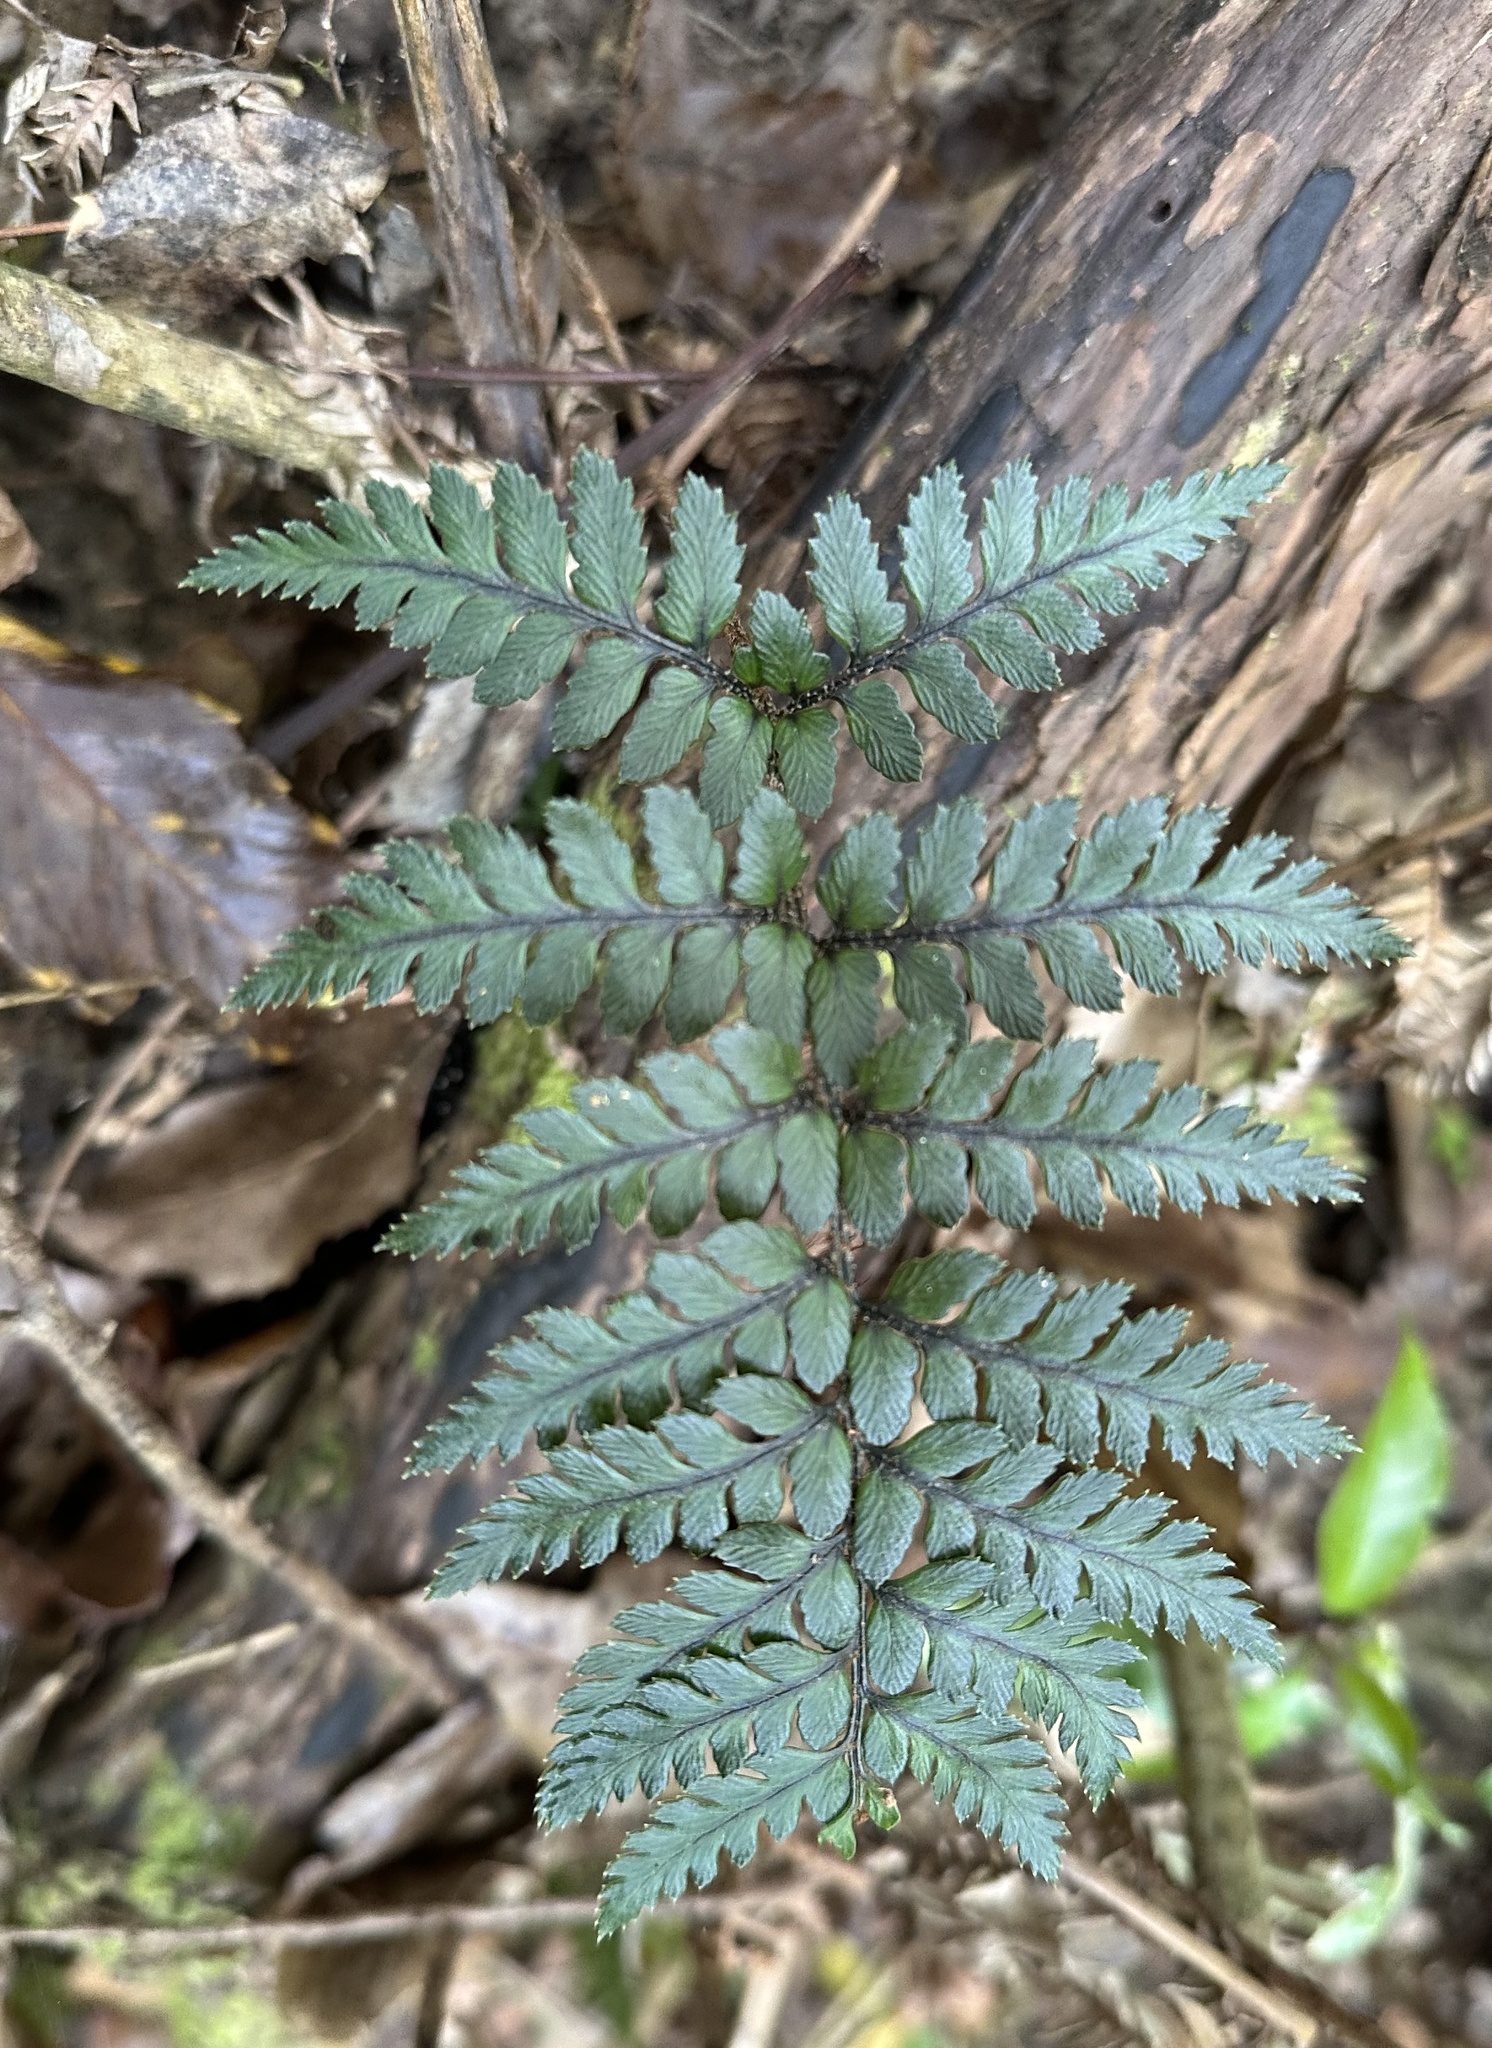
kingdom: Plantae
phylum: Tracheophyta
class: Polypodiopsida
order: Polypodiales
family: Dryopteridaceae
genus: Polystichum
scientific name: Polystichum neozelandicum
